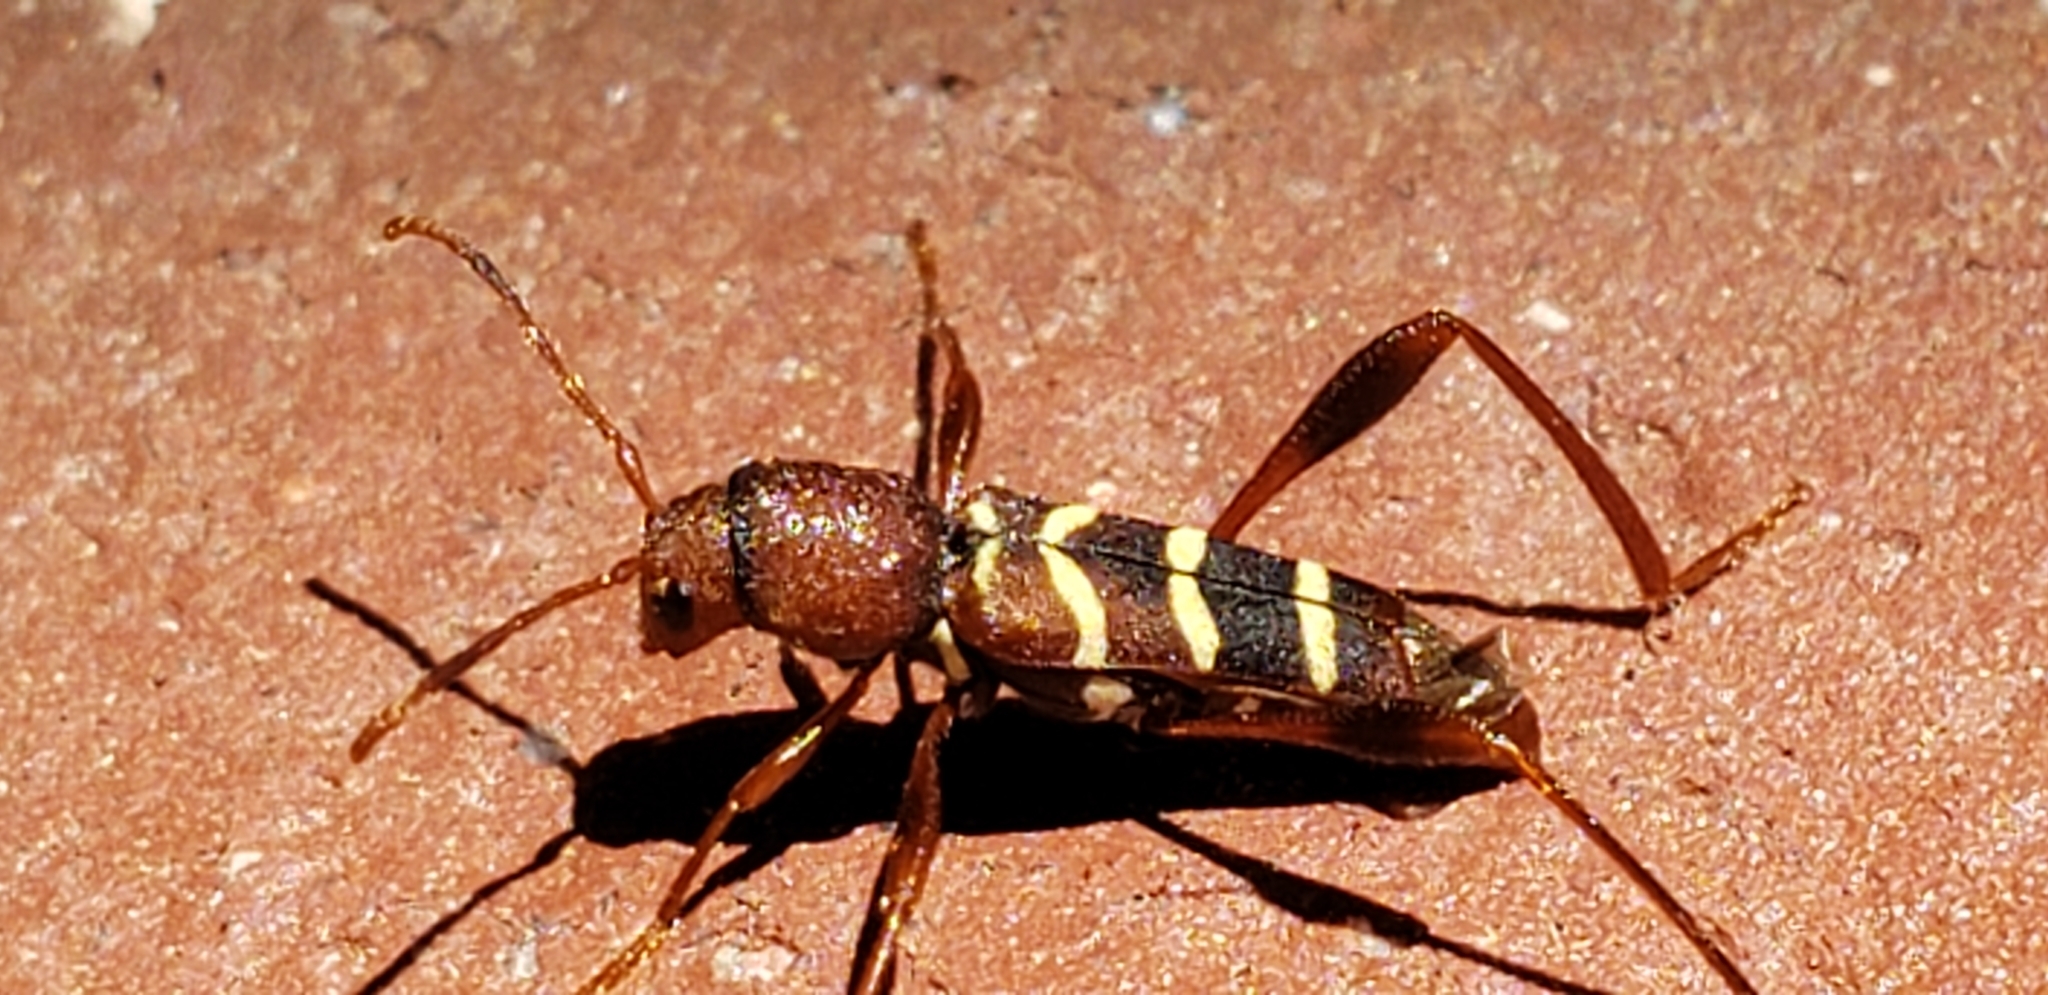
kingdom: Animalia
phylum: Arthropoda
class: Insecta
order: Coleoptera
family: Cerambycidae
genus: Neoclytus
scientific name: Neoclytus acuminatus
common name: Read-headed ash borer
